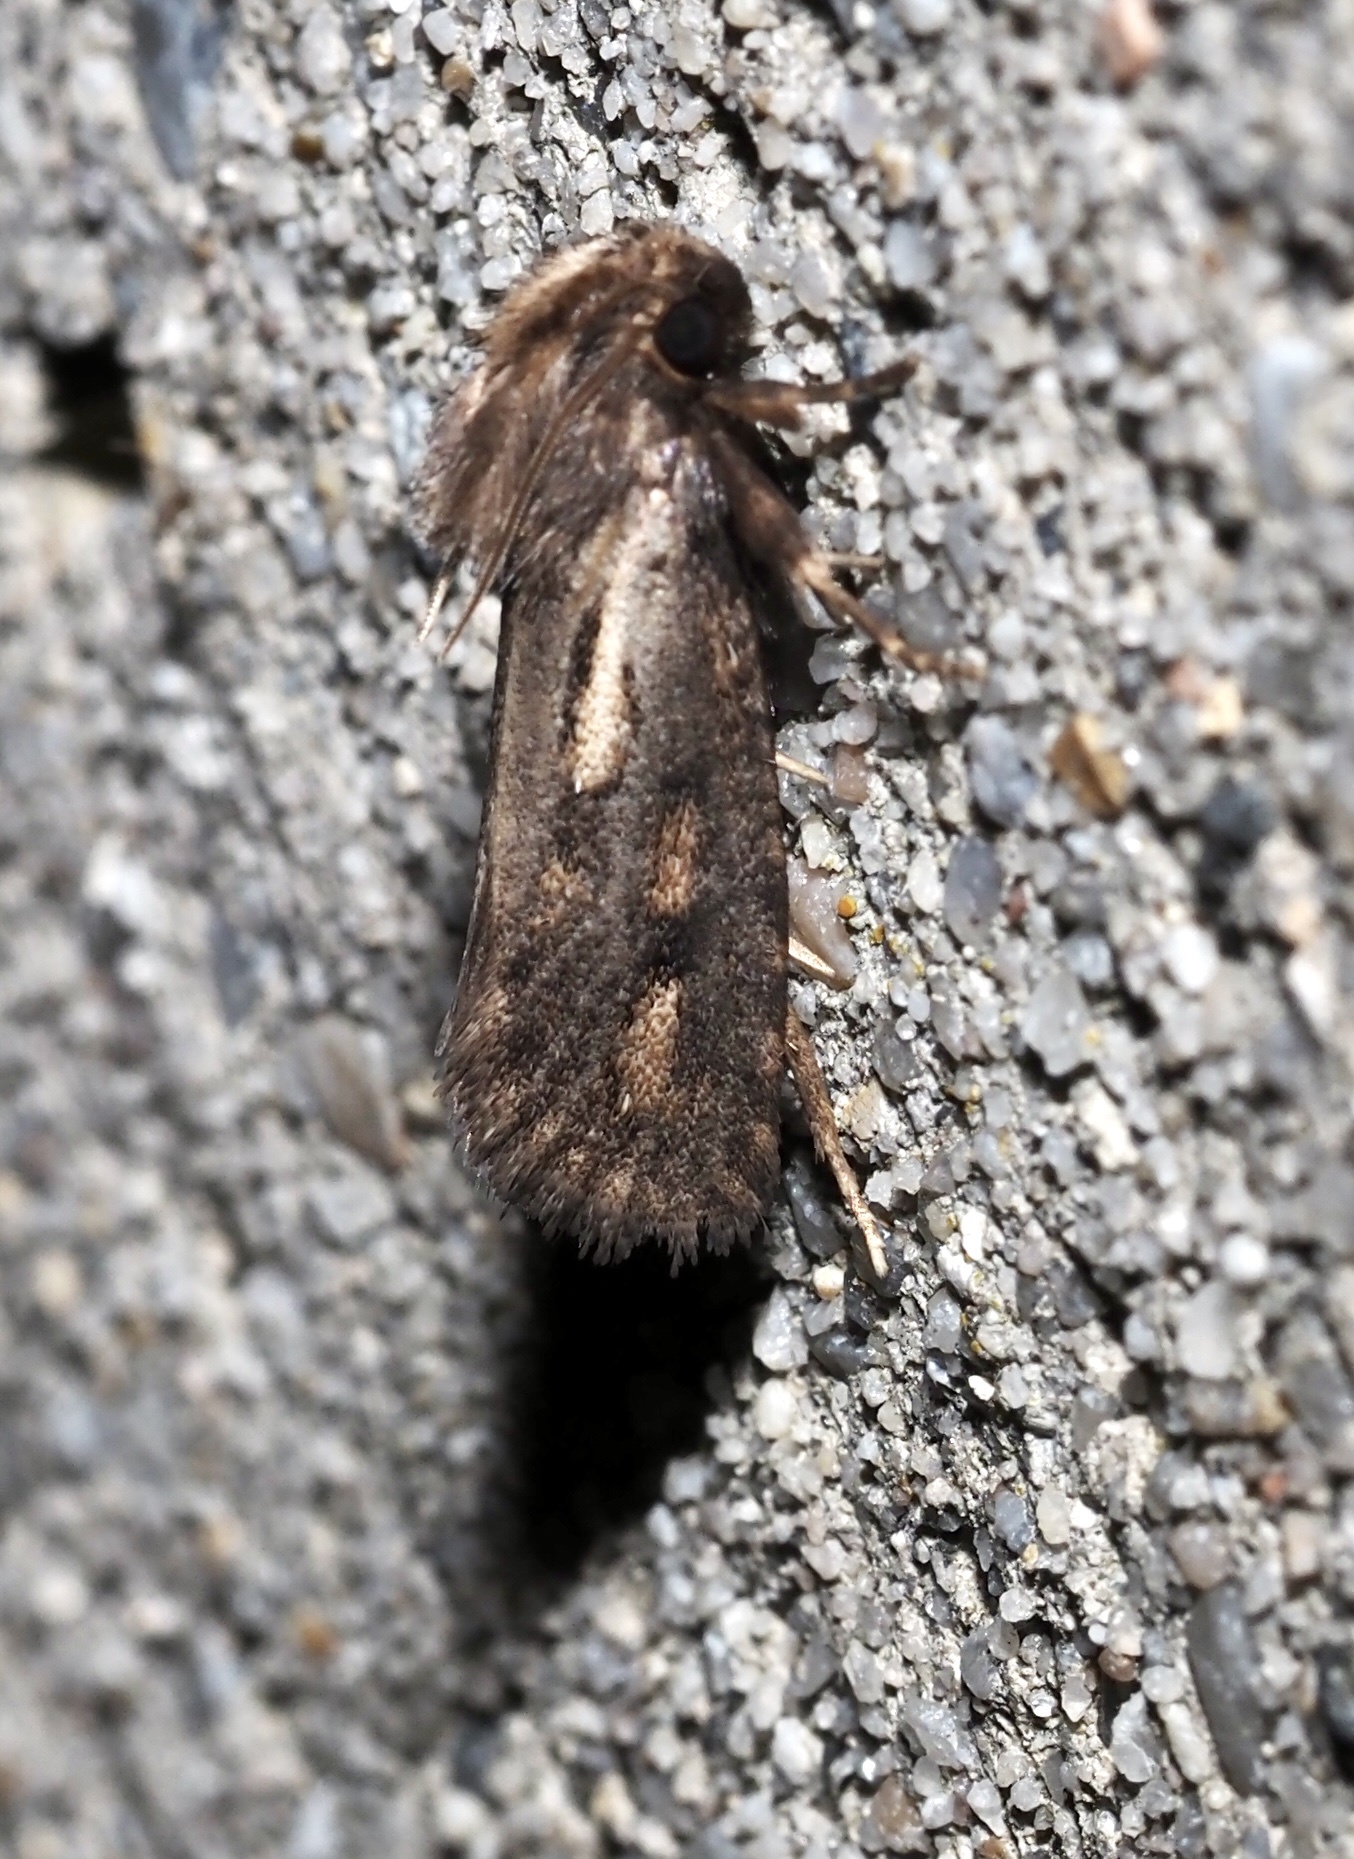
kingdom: Animalia
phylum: Arthropoda
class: Insecta
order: Lepidoptera
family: Tineidae
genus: Acrolophus
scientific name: Acrolophus popeanella
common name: Clemens' grass tubeworm moth
